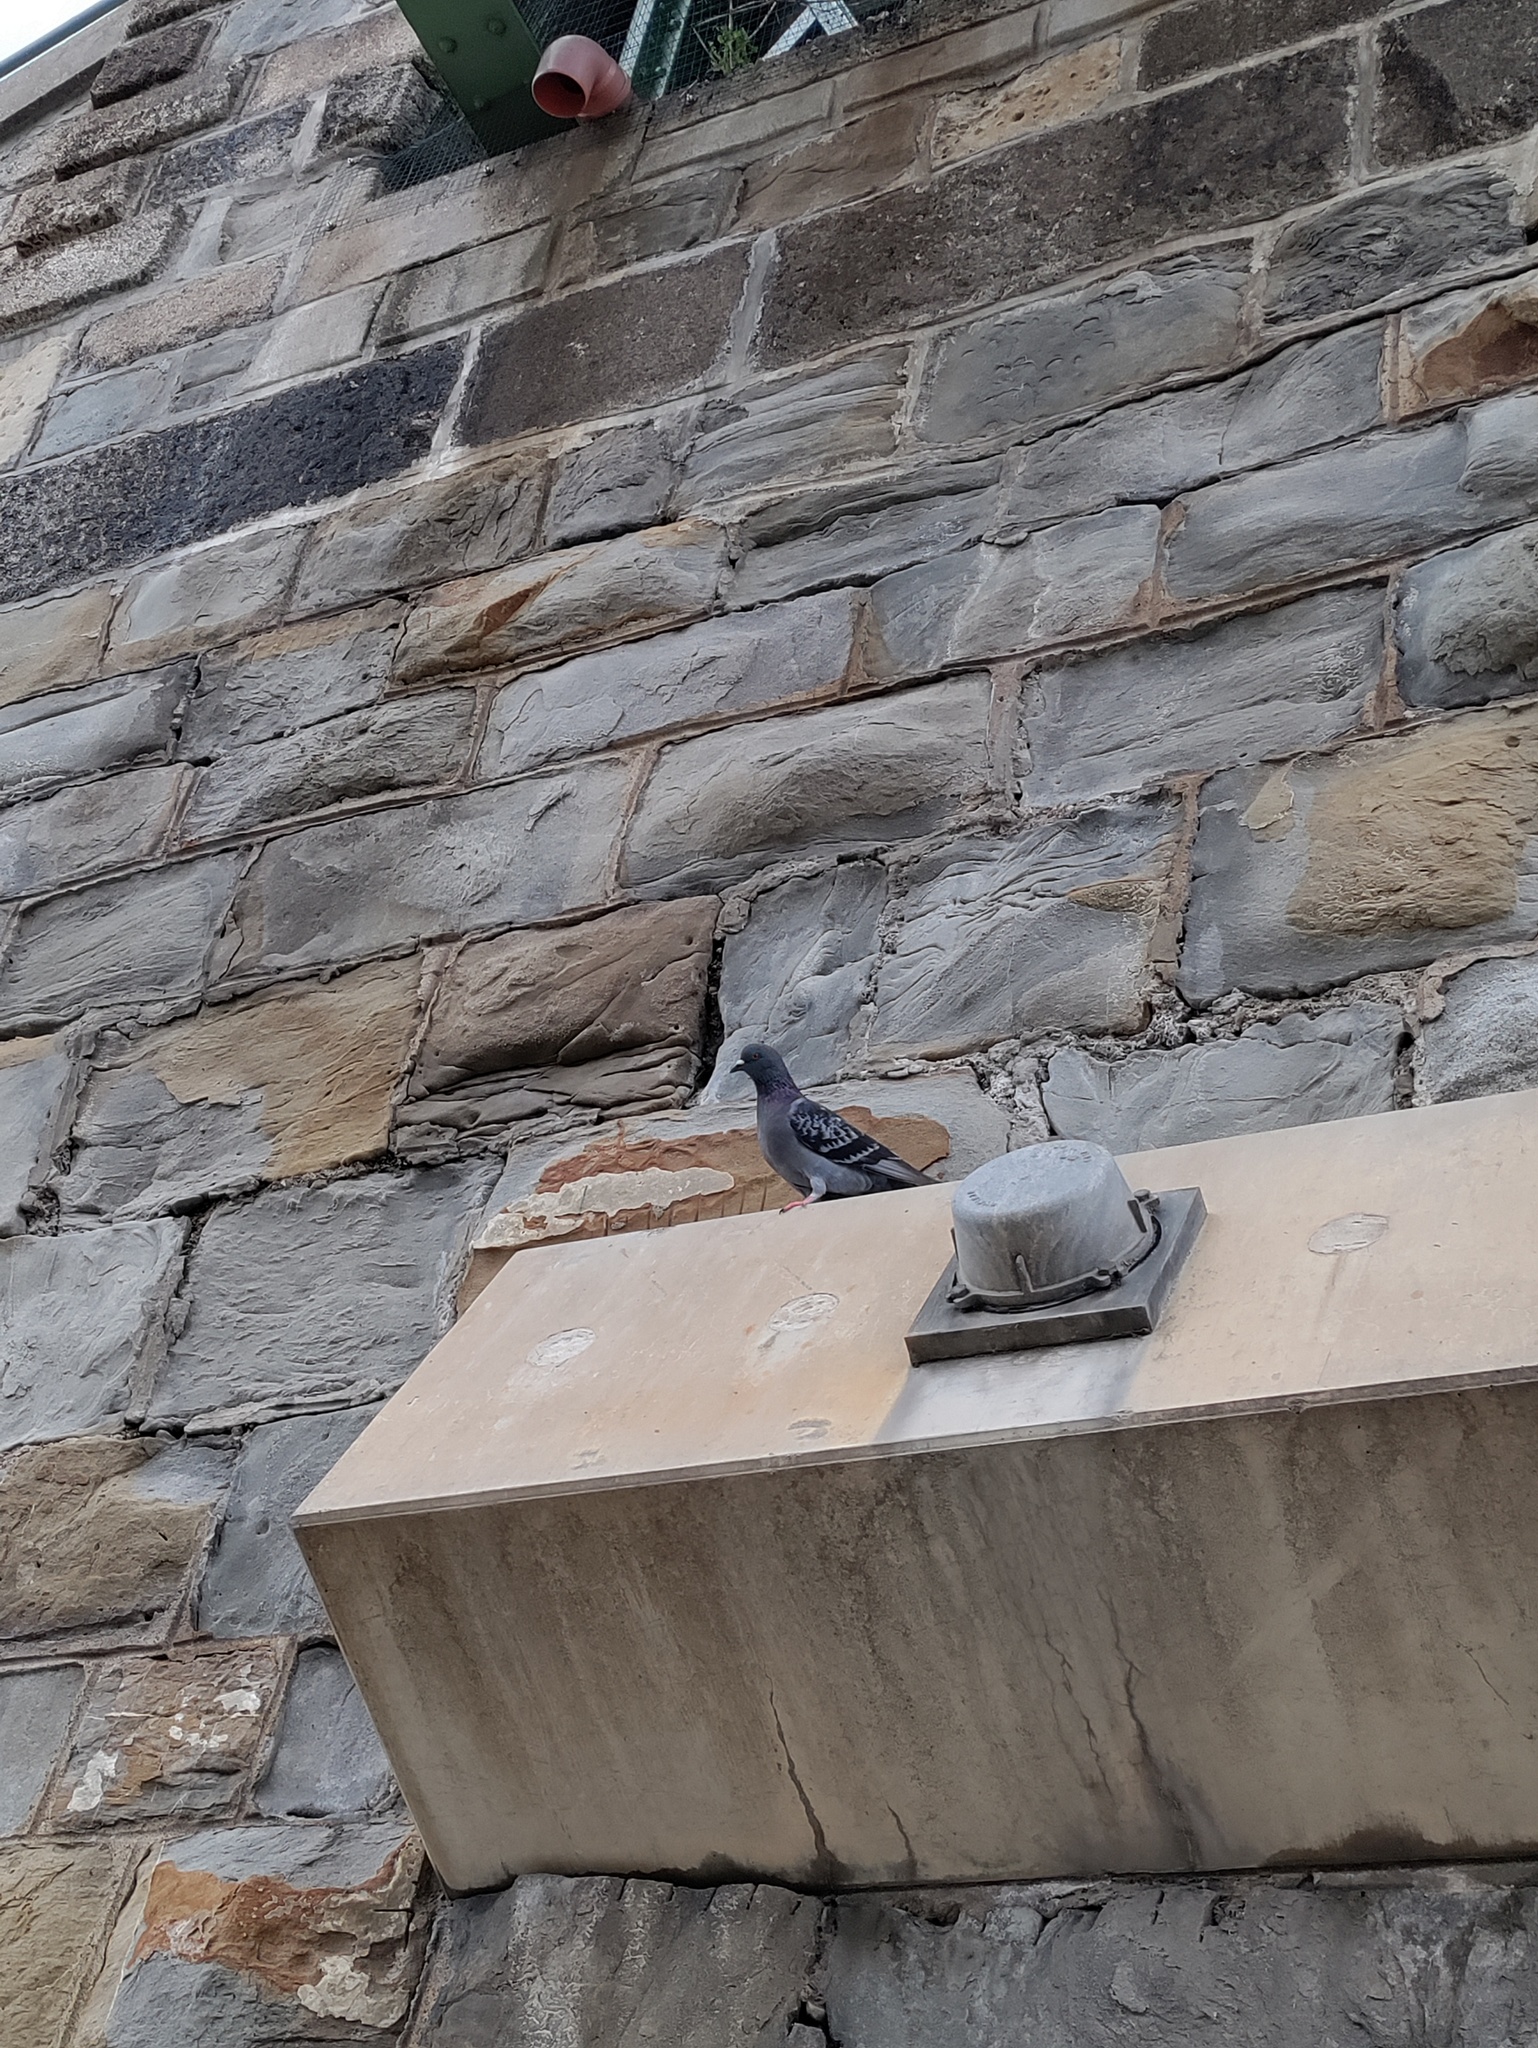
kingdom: Animalia
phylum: Chordata
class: Aves
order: Columbiformes
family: Columbidae
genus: Columba
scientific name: Columba livia
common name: Rock pigeon
